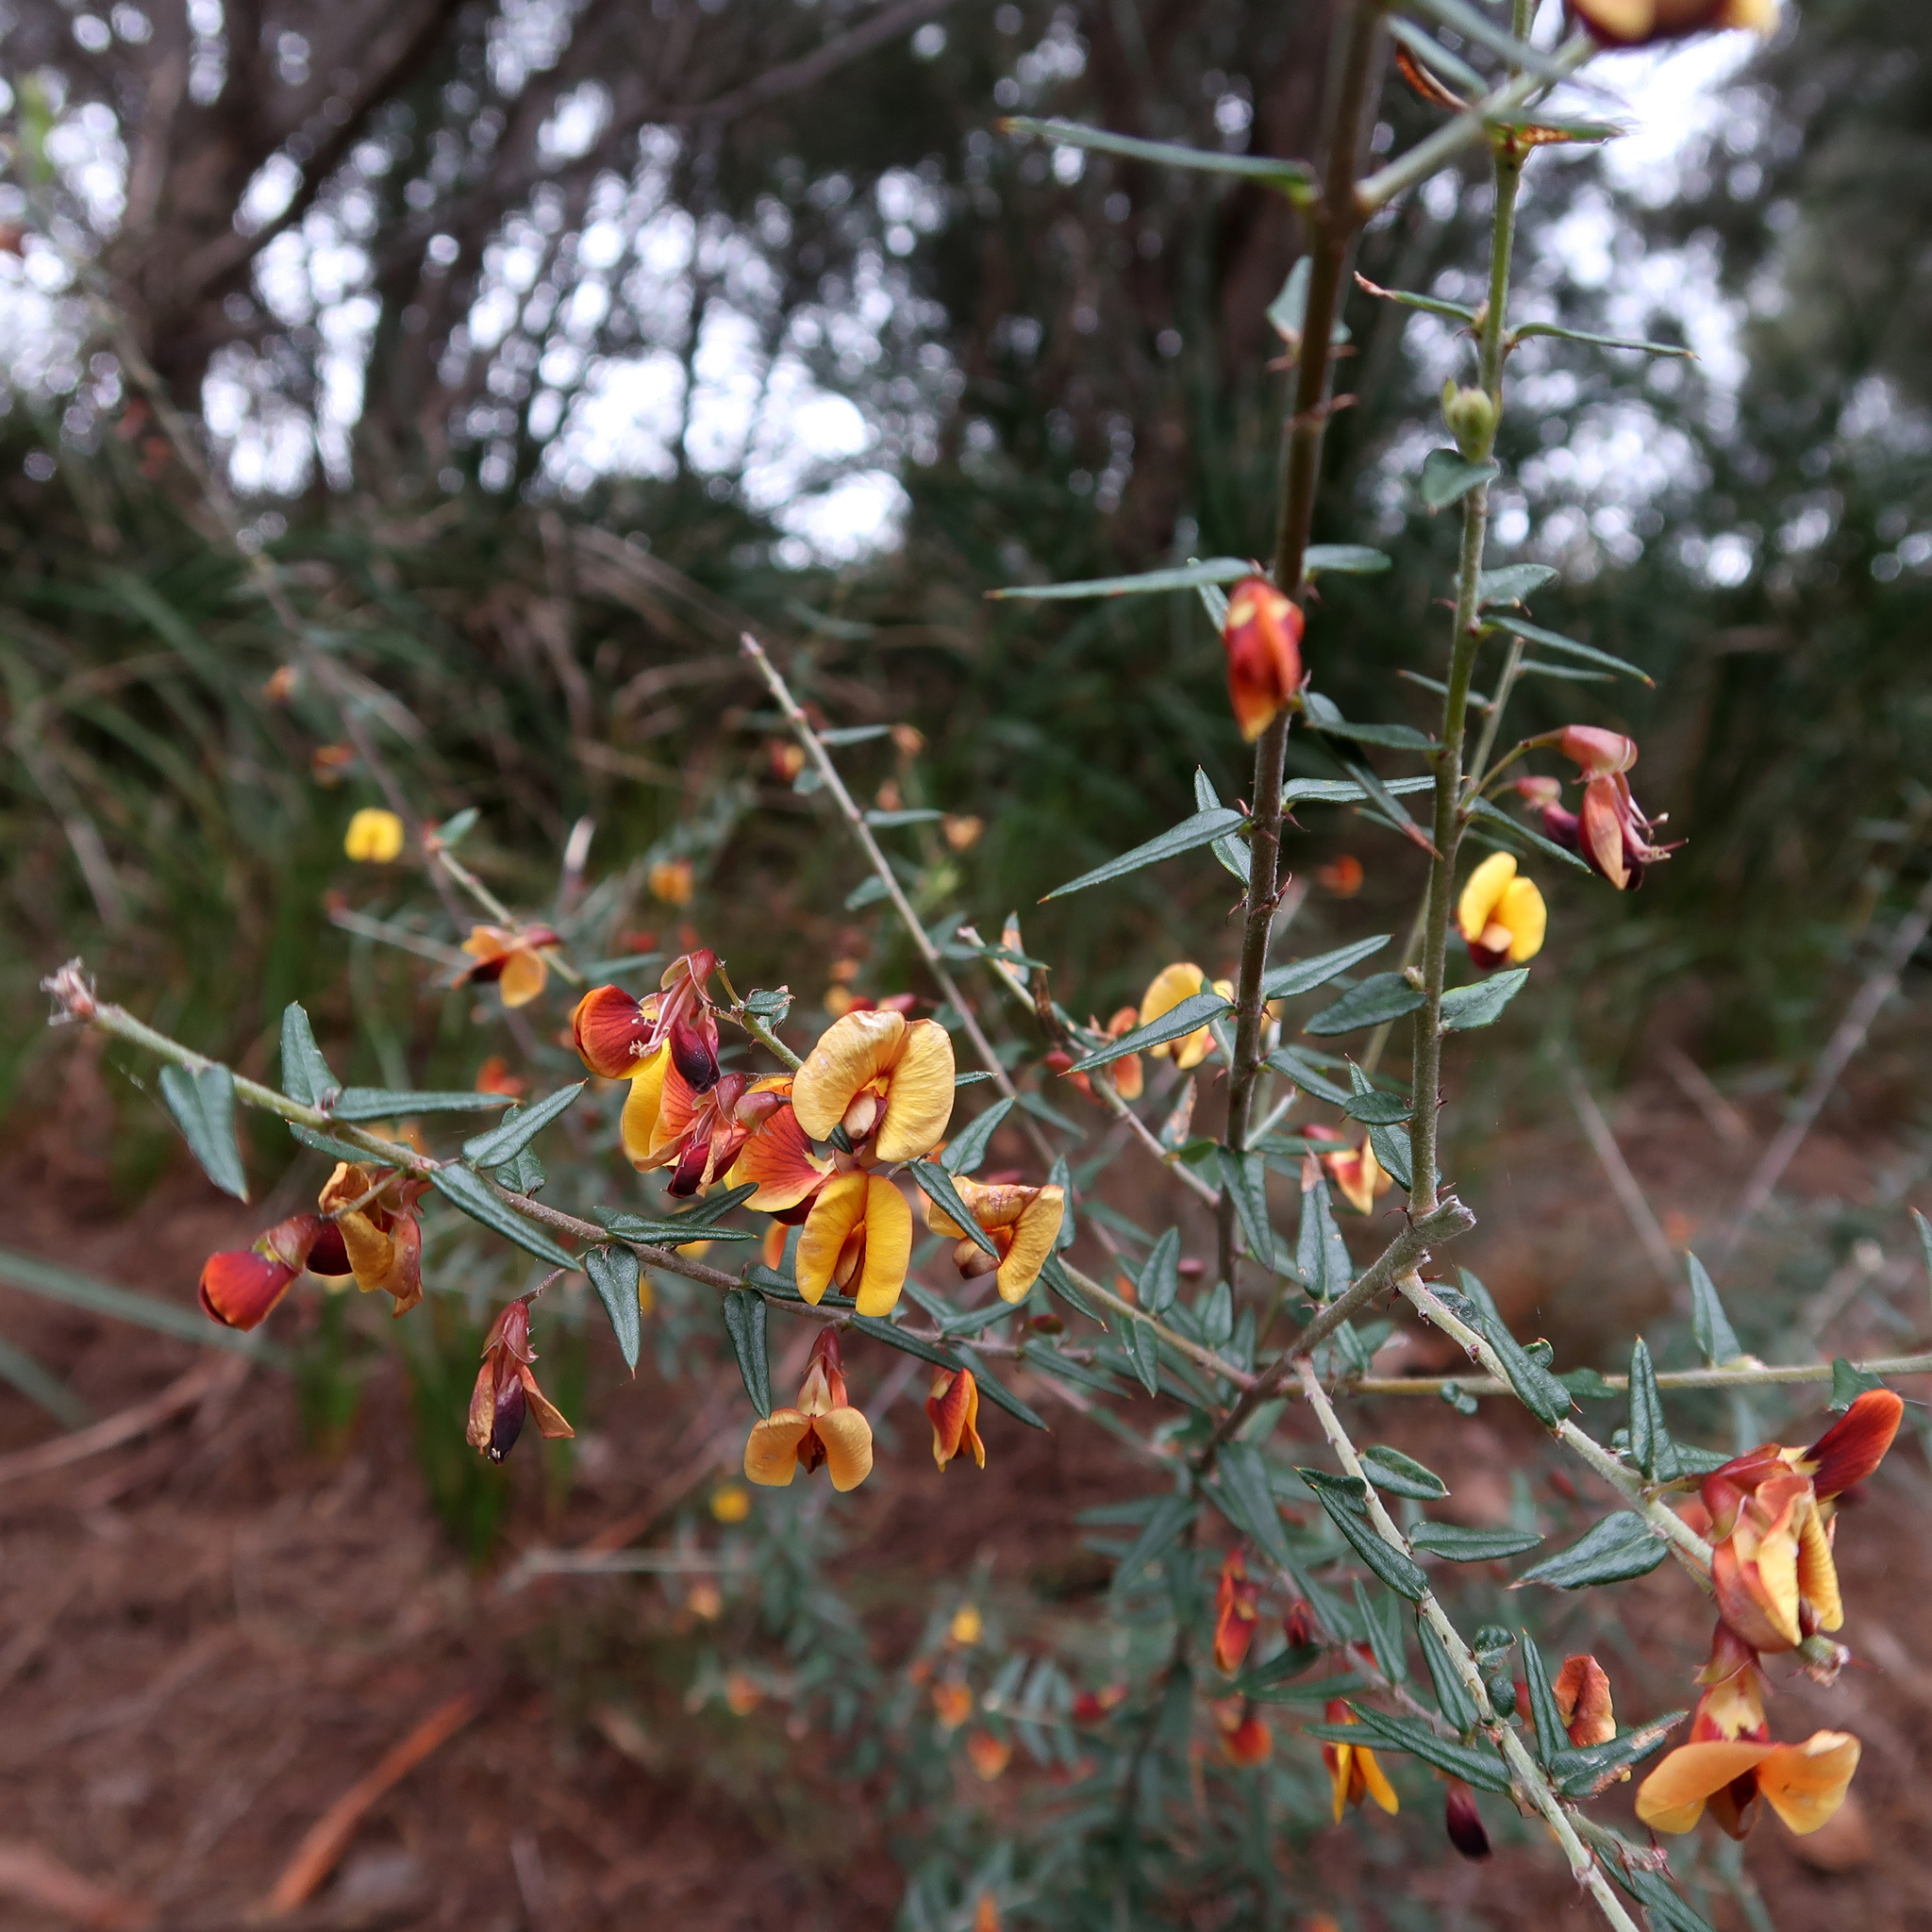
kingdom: Plantae
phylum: Tracheophyta
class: Magnoliopsida
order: Fabales
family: Fabaceae
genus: Bossiaea
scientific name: Bossiaea cinerea
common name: Showy bossiaea
